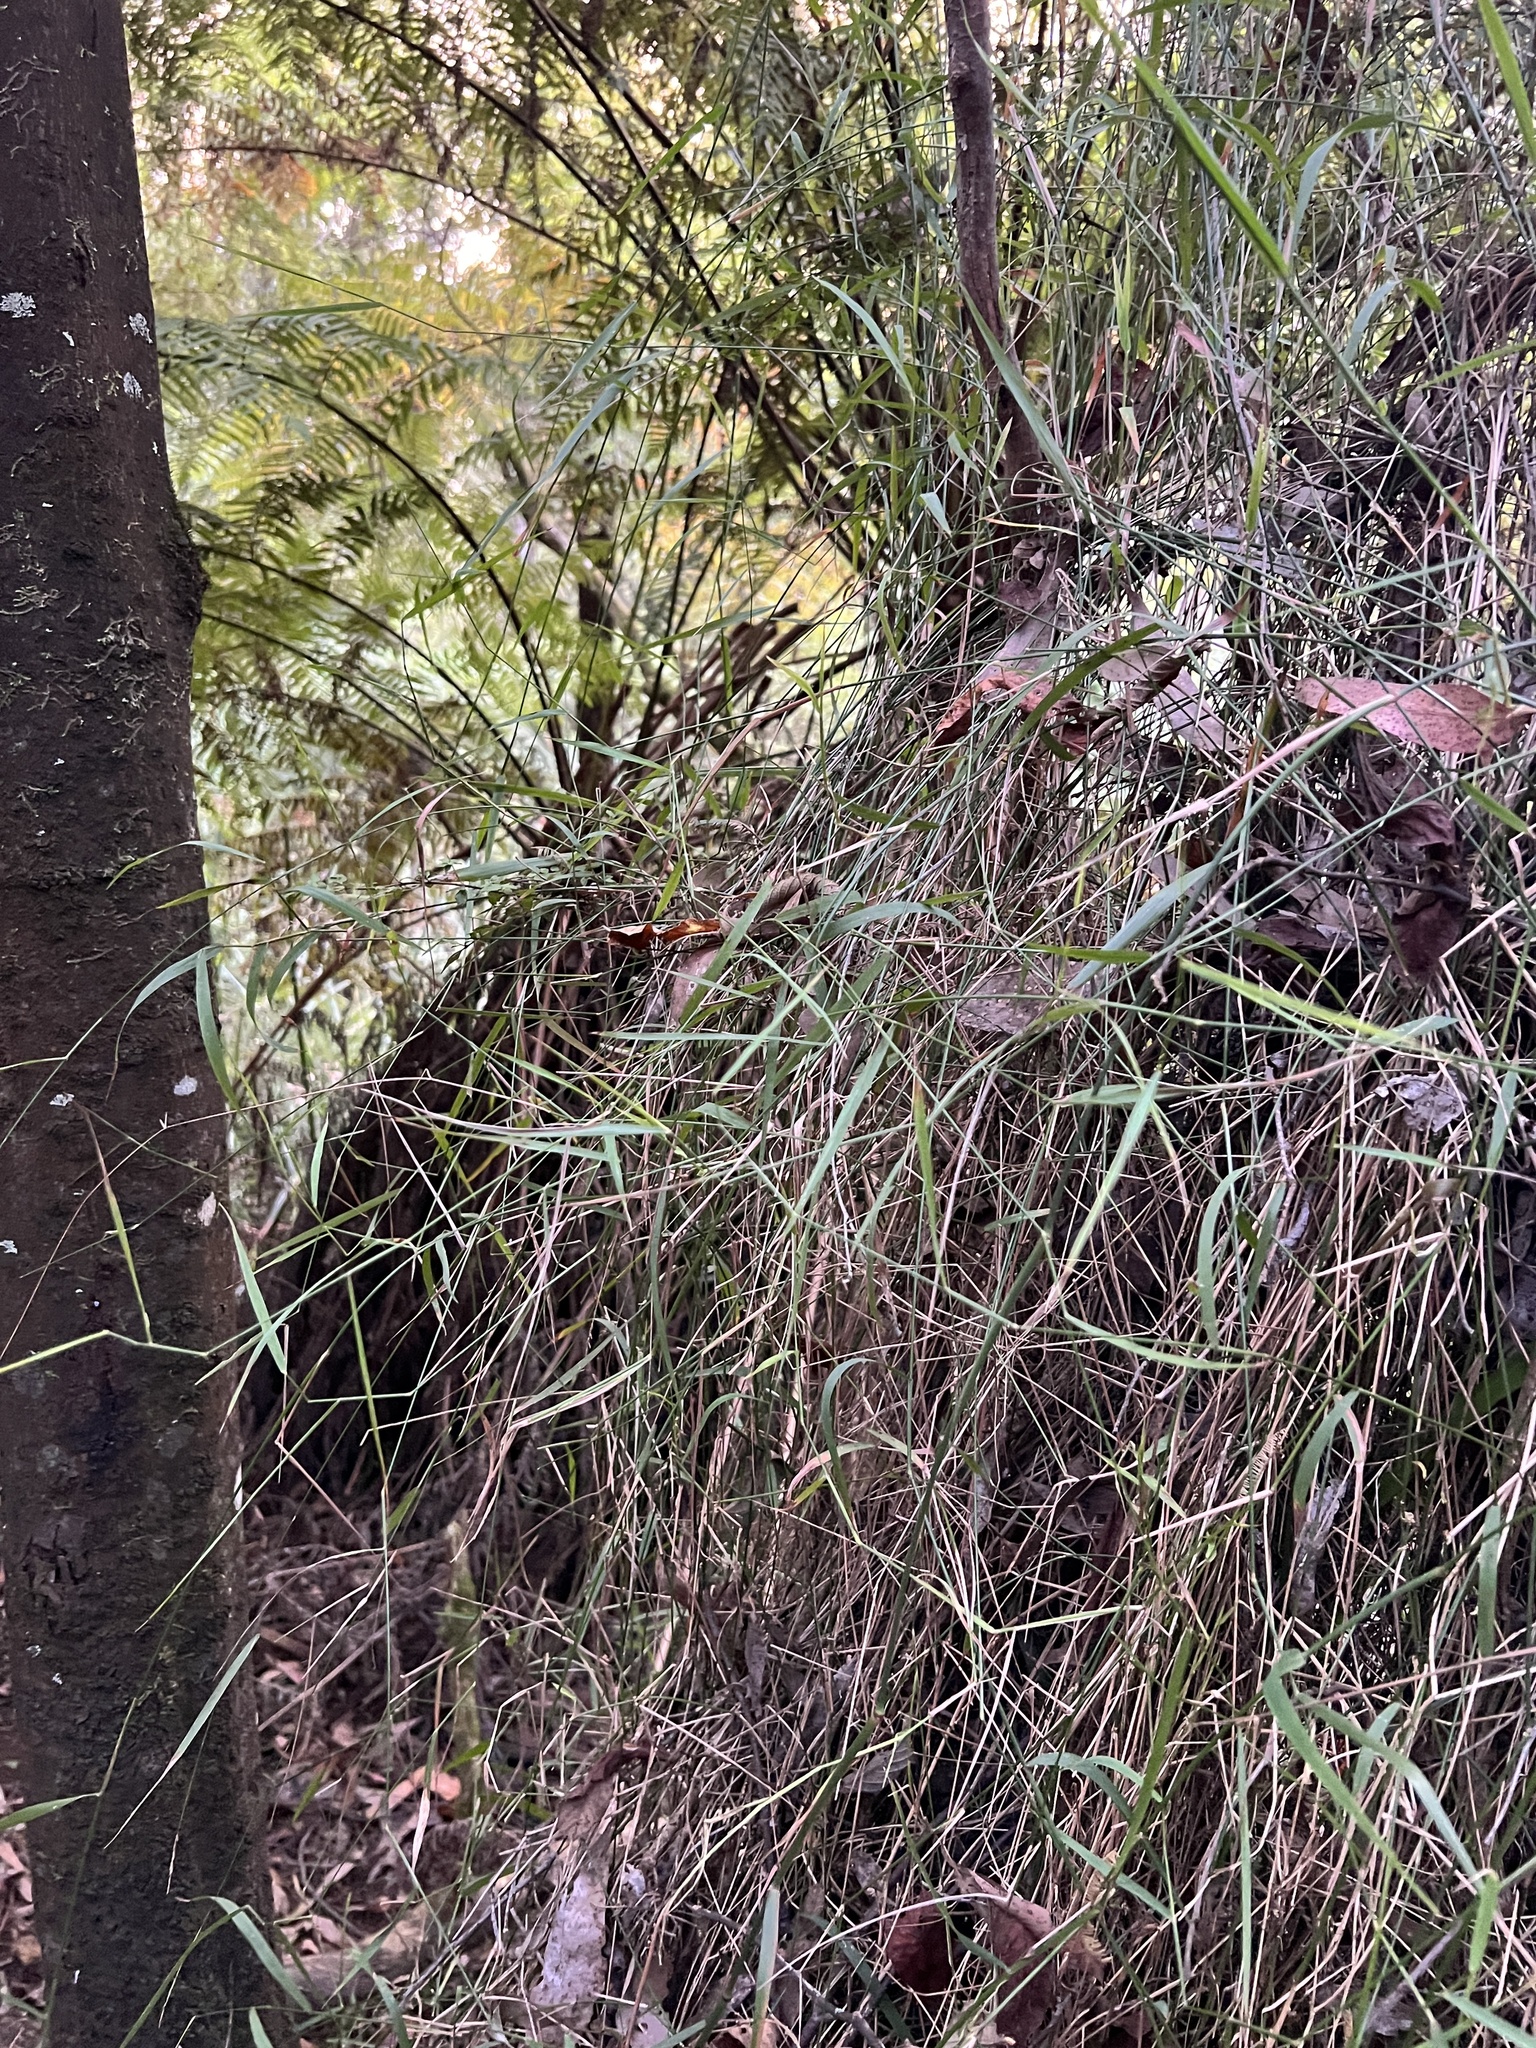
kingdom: Plantae
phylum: Tracheophyta
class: Liliopsida
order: Poales
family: Poaceae
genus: Tetrarrhena
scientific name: Tetrarrhena juncea
